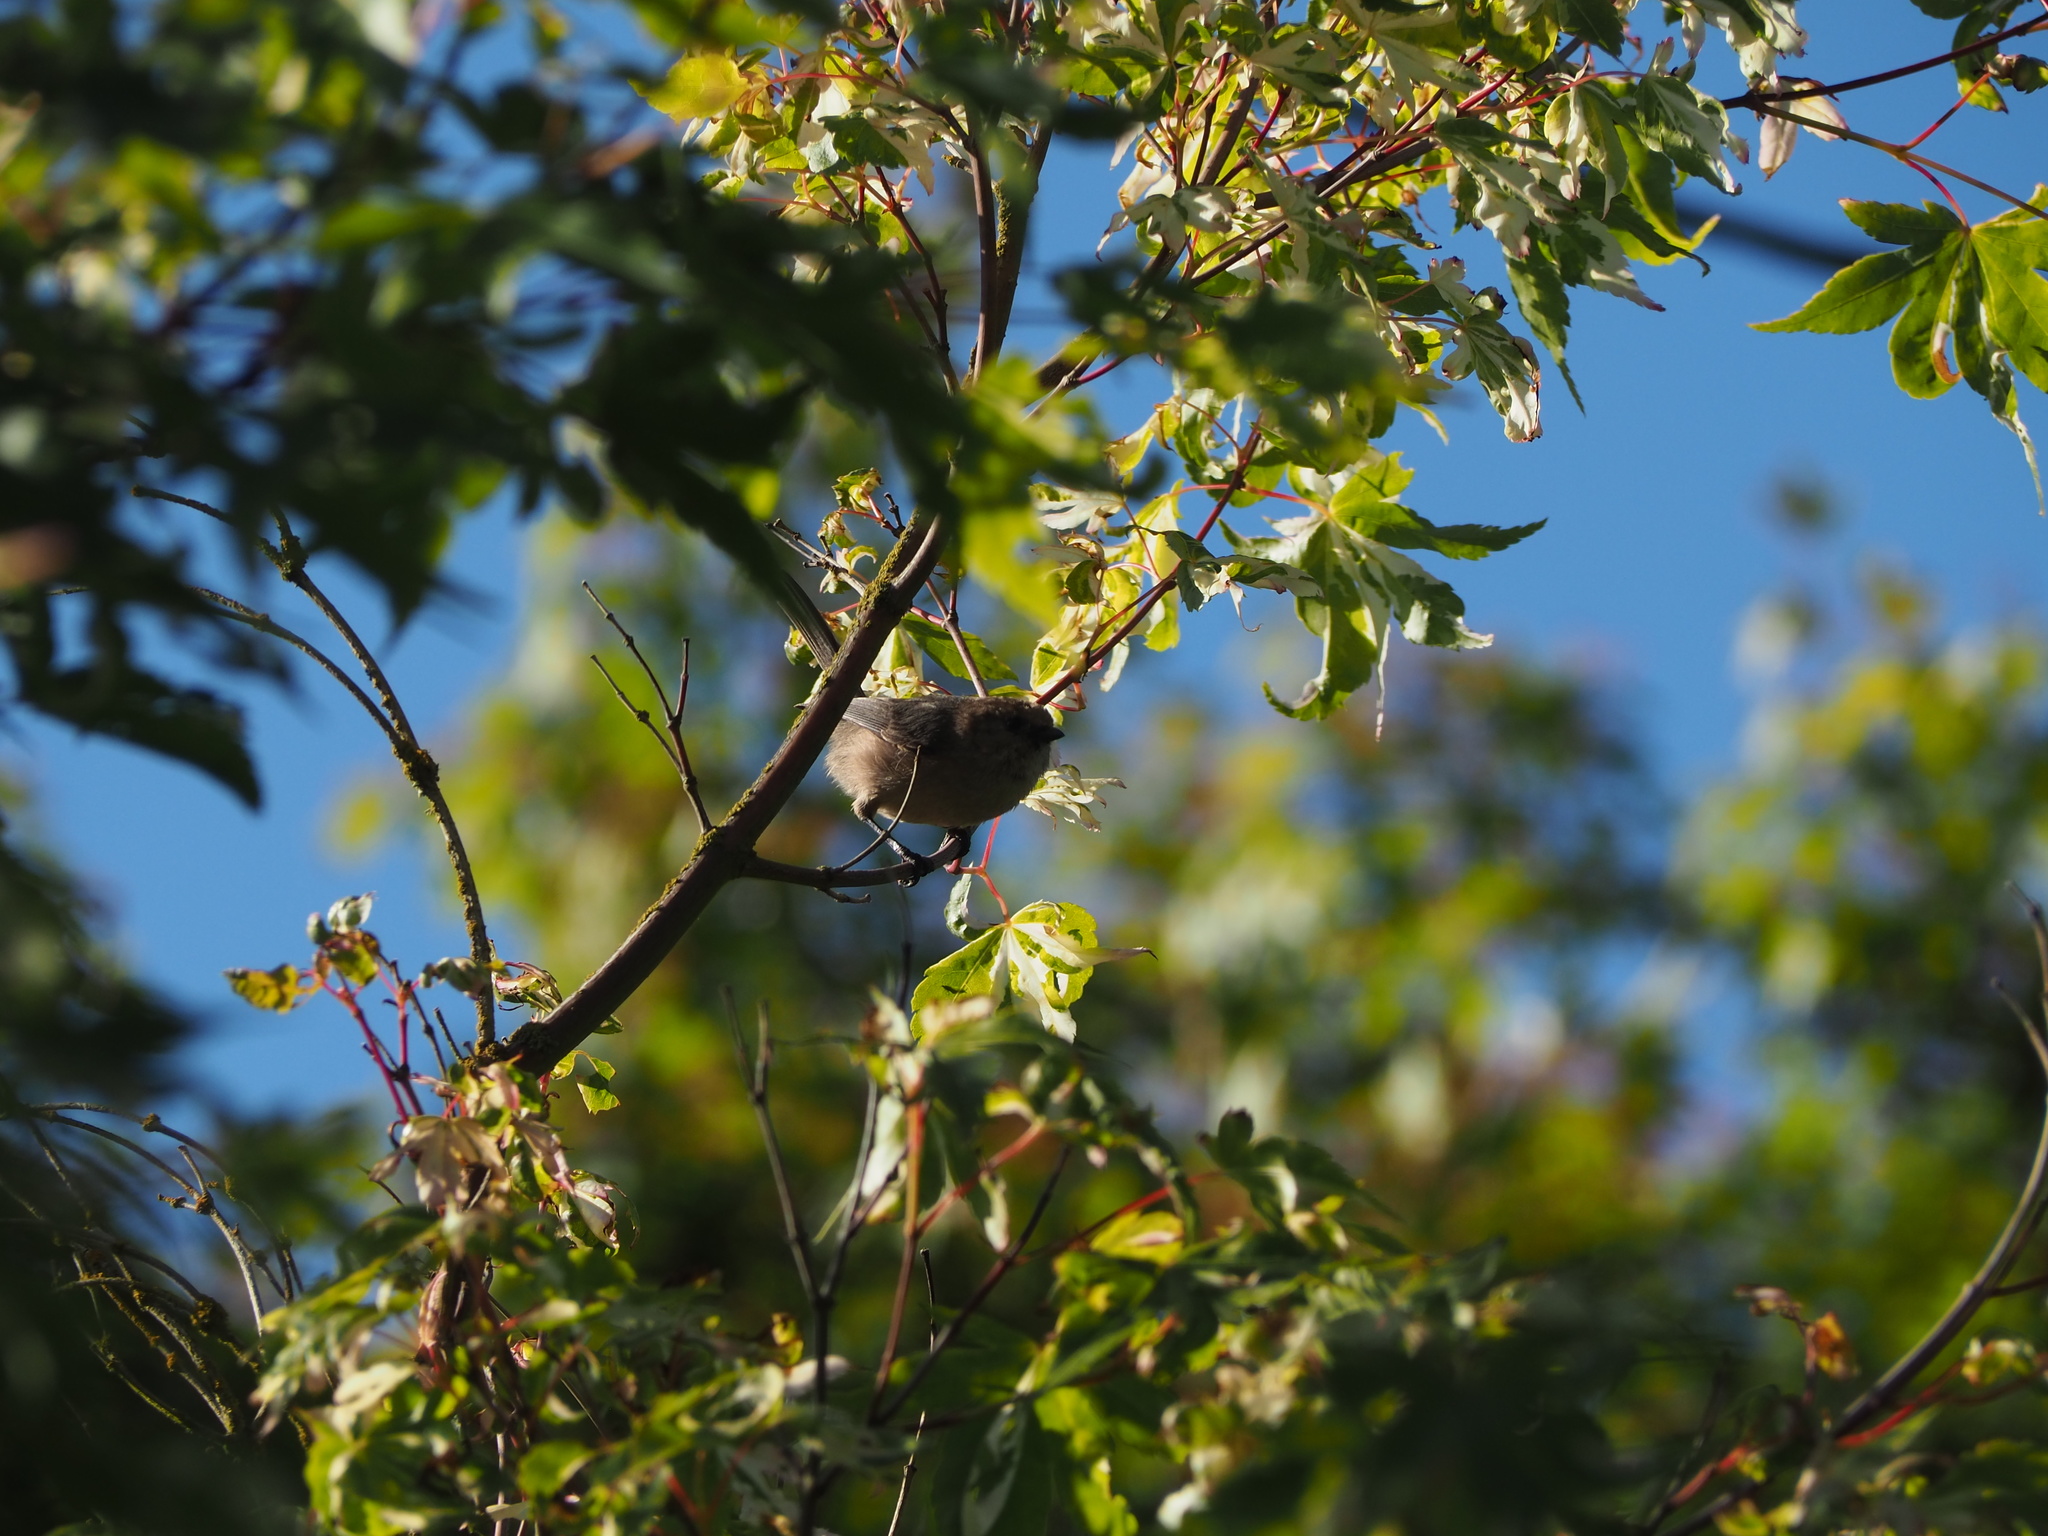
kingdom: Animalia
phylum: Chordata
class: Aves
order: Passeriformes
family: Aegithalidae
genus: Psaltriparus
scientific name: Psaltriparus minimus
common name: American bushtit
